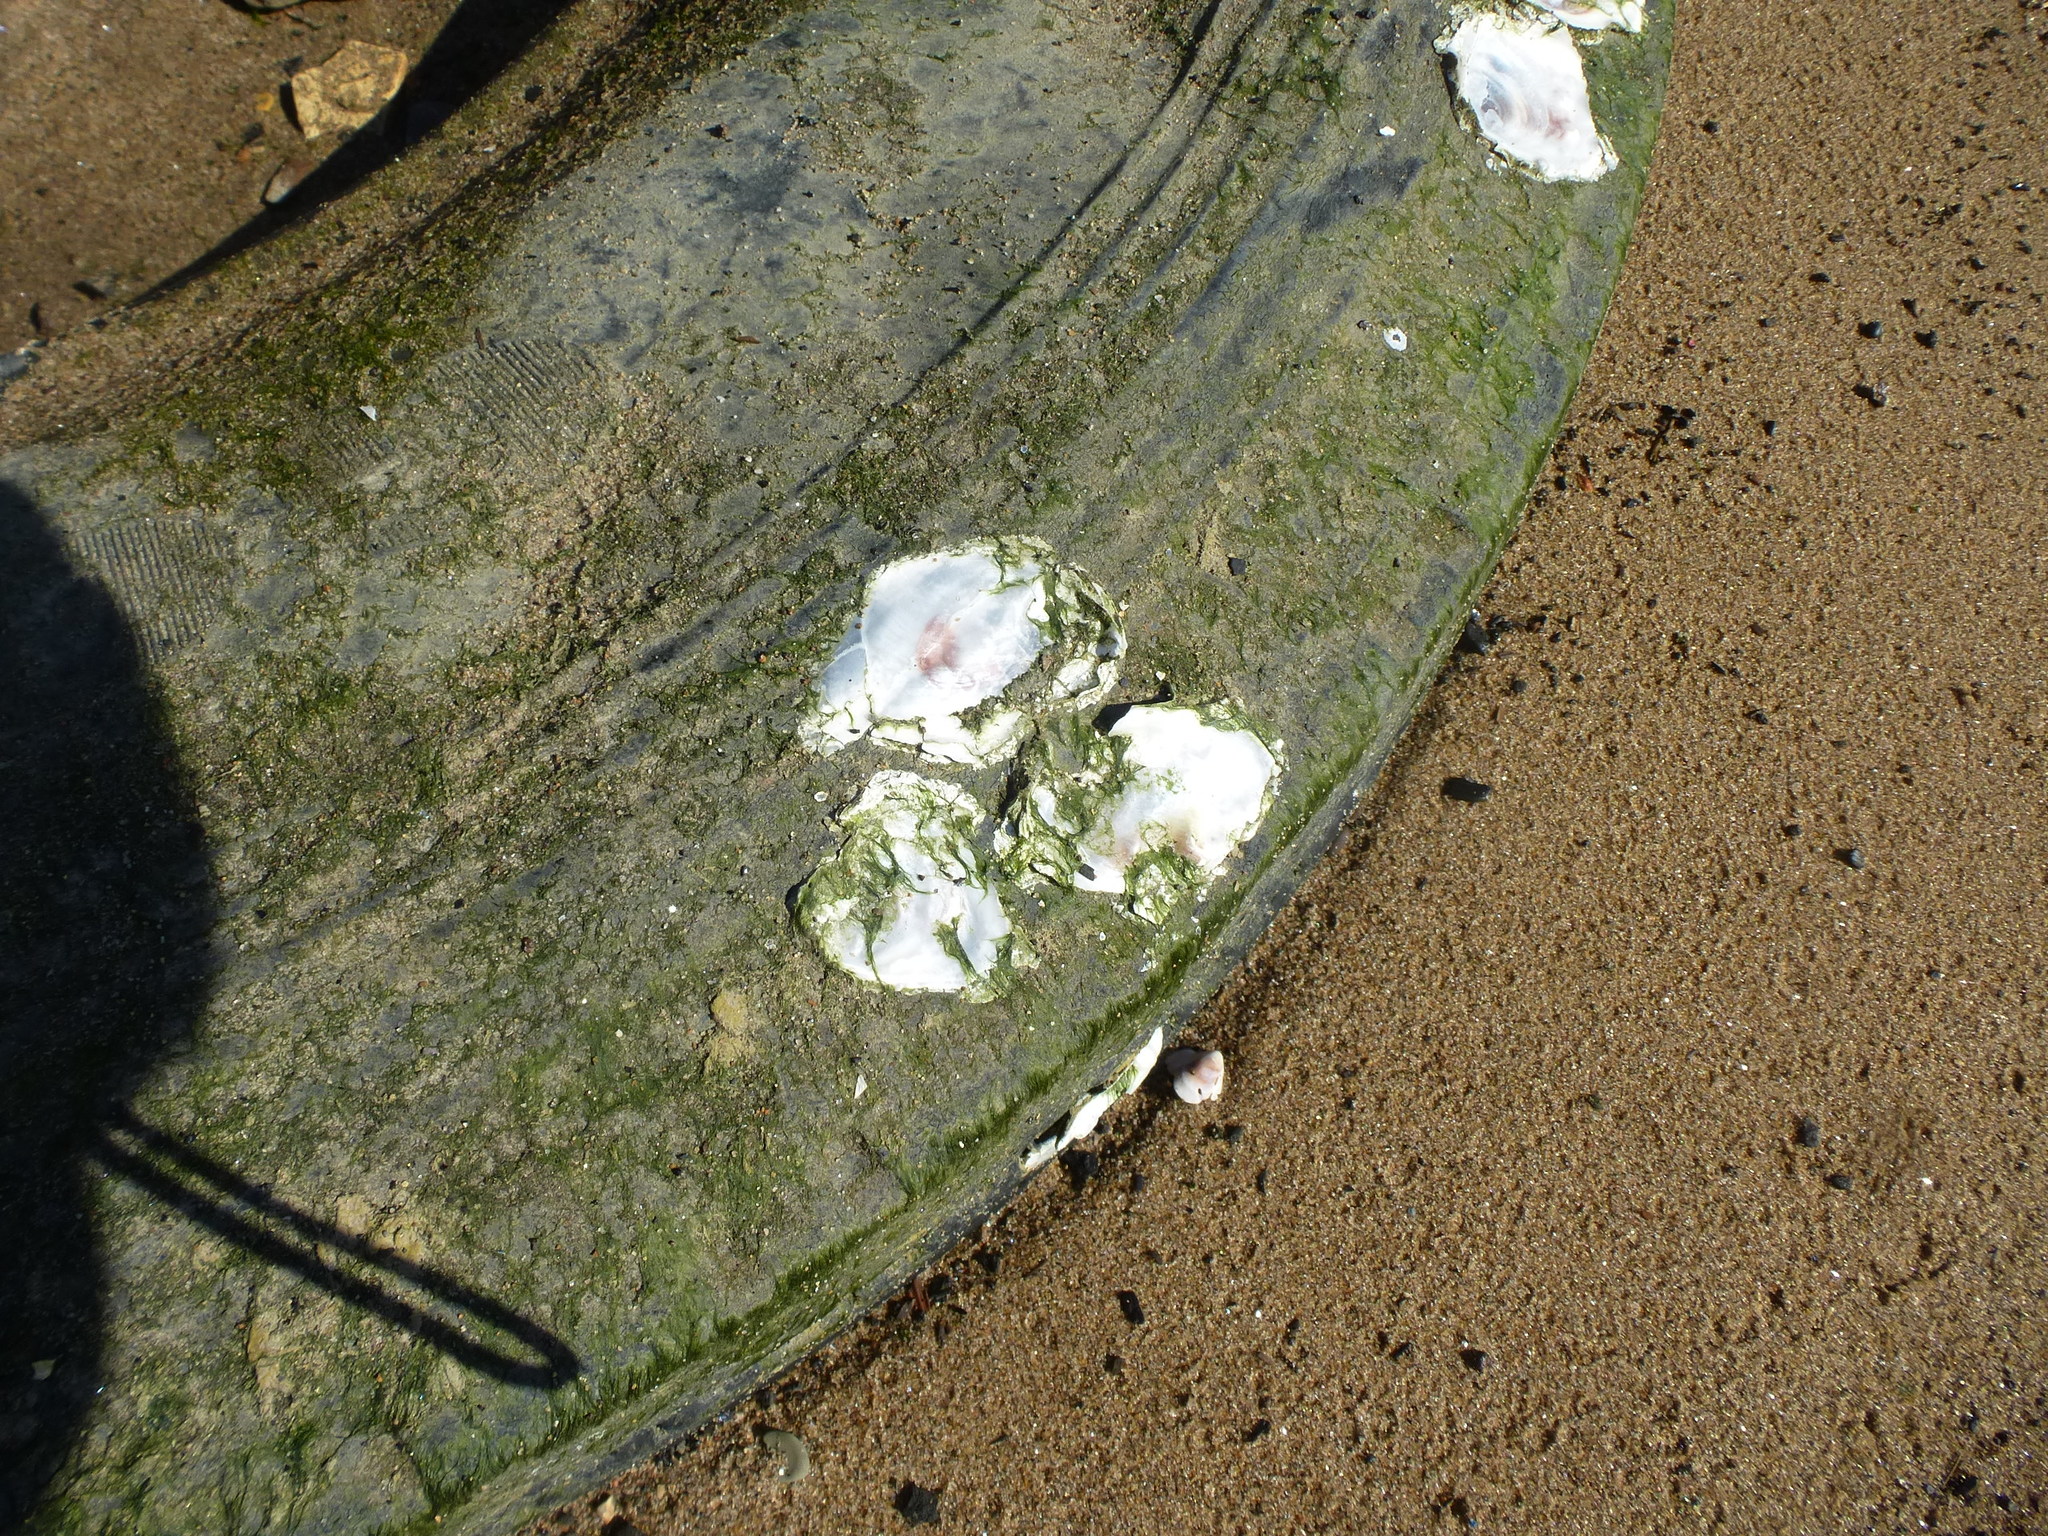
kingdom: Animalia
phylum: Mollusca
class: Bivalvia
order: Ostreida
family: Ostreidae
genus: Crassostrea
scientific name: Crassostrea virginica
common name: American oyster
